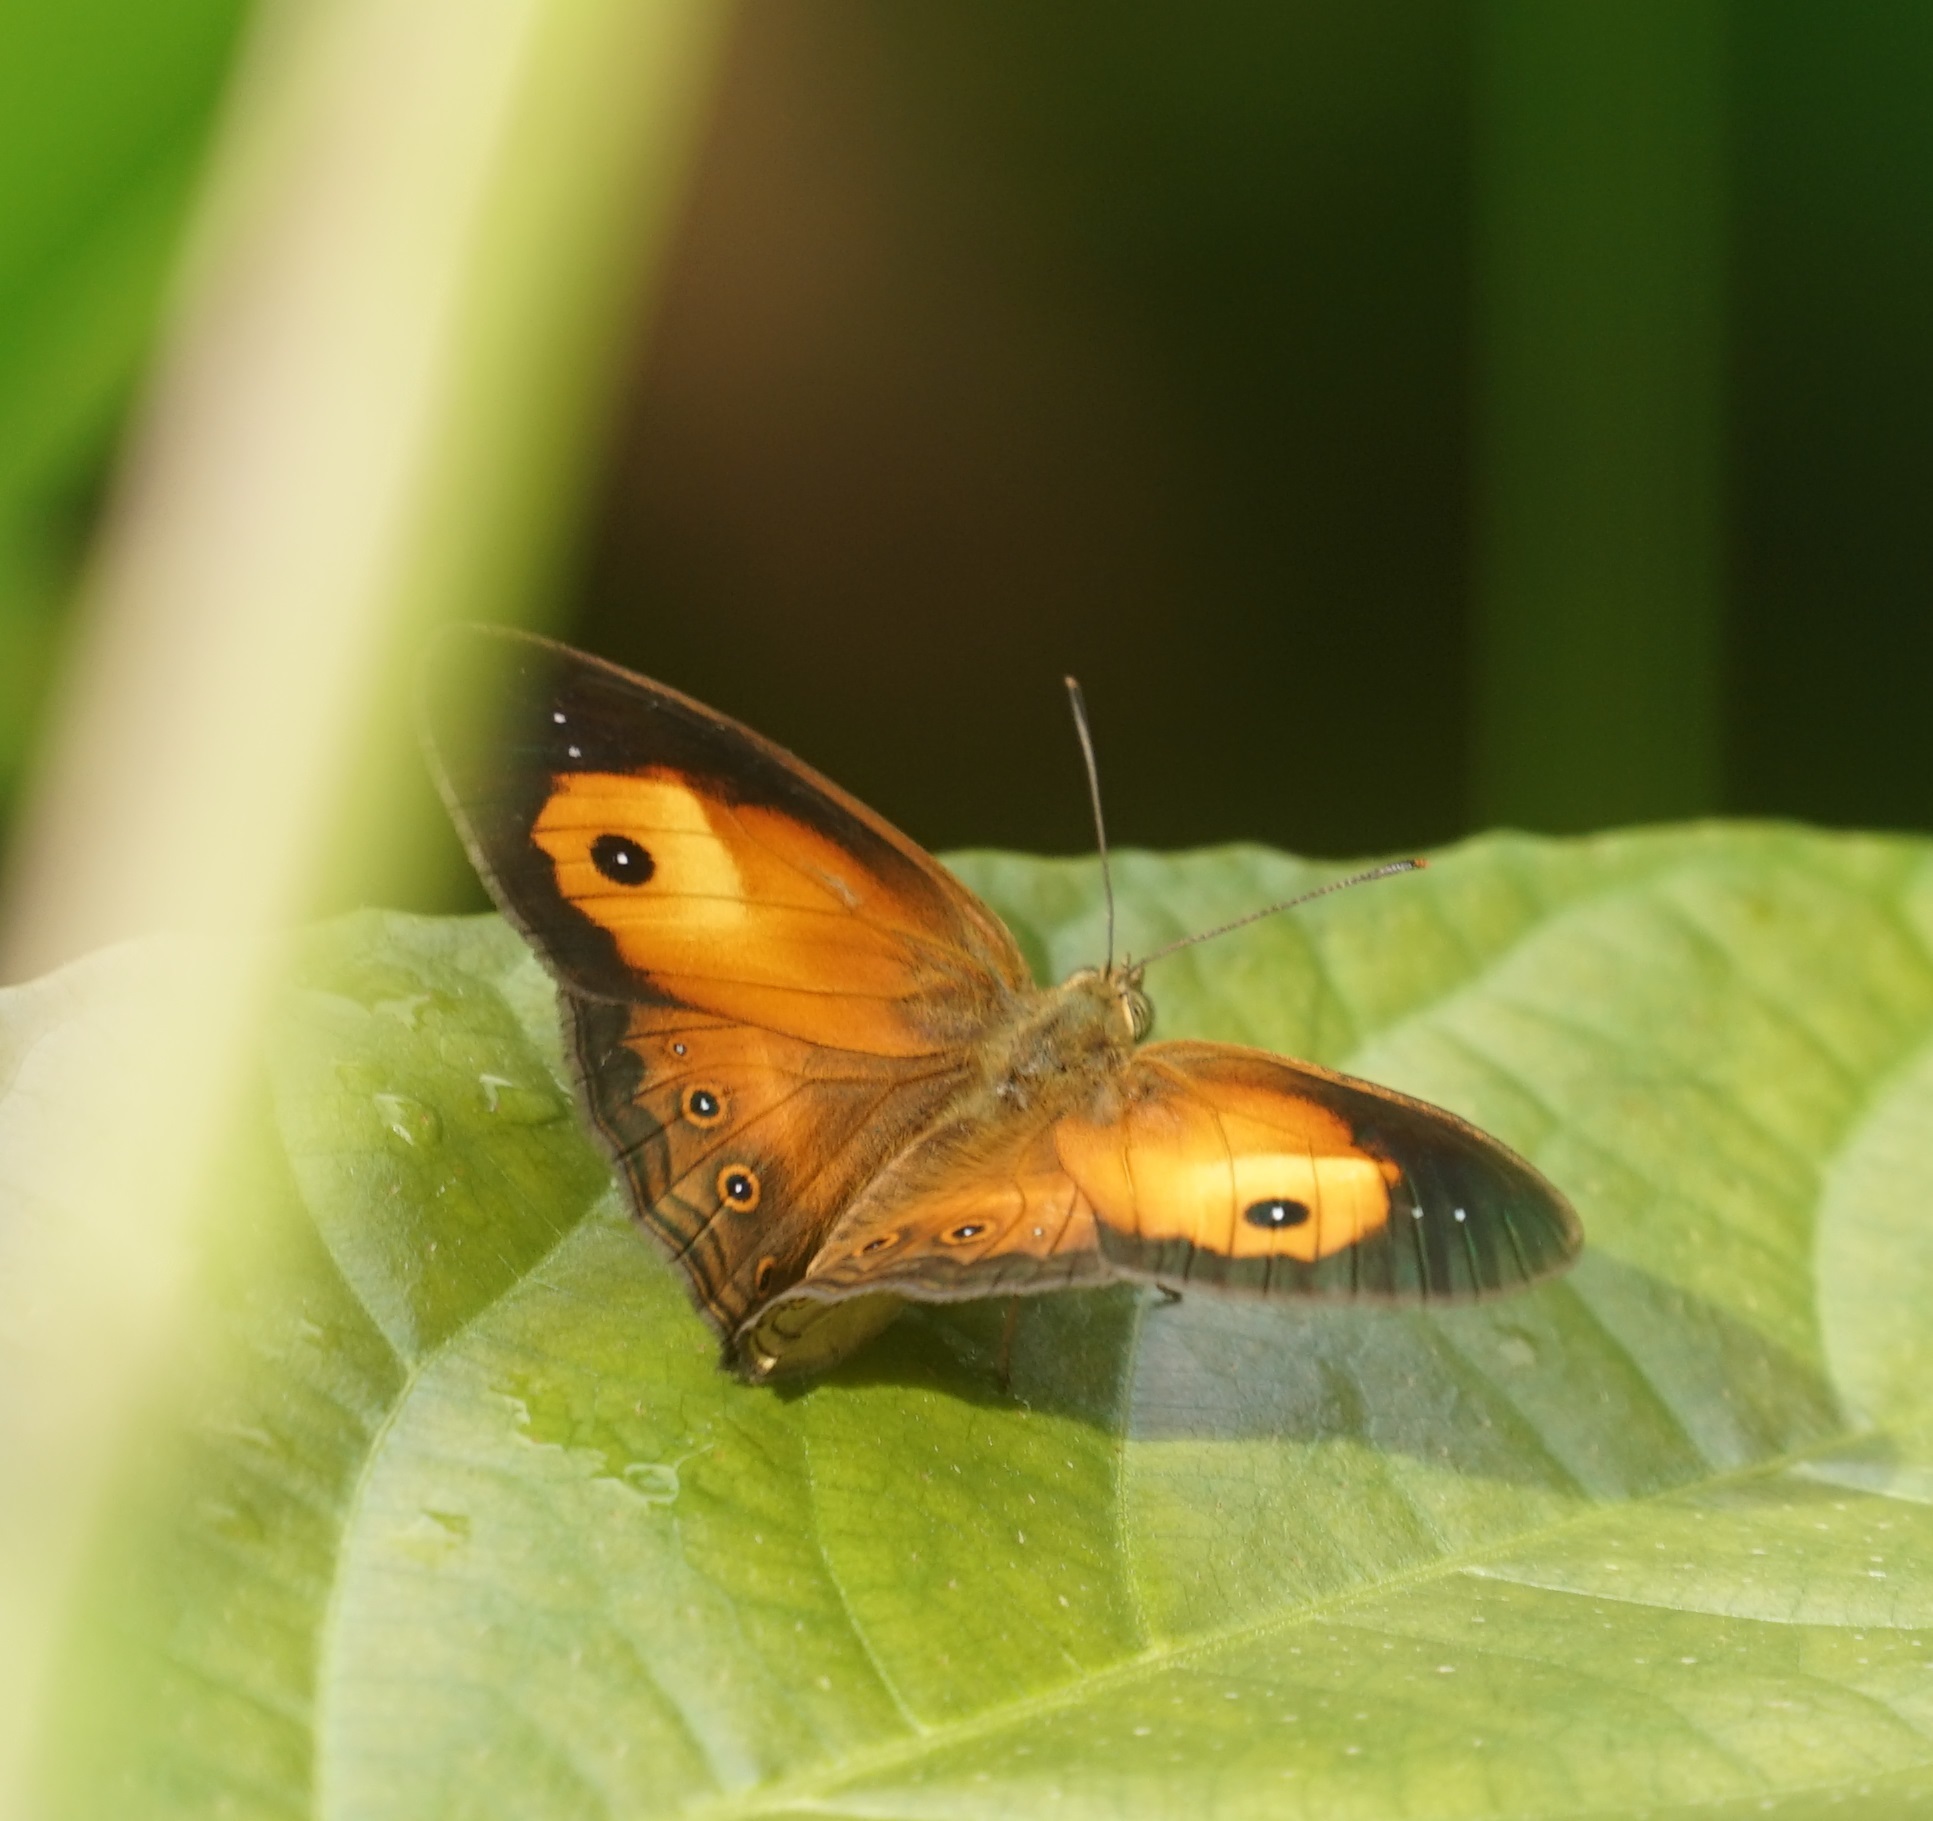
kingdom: Animalia
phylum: Arthropoda
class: Insecta
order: Lepidoptera
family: Nymphalidae
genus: Mycalesis
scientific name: Mycalesis terminus
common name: Orange bushbrown
